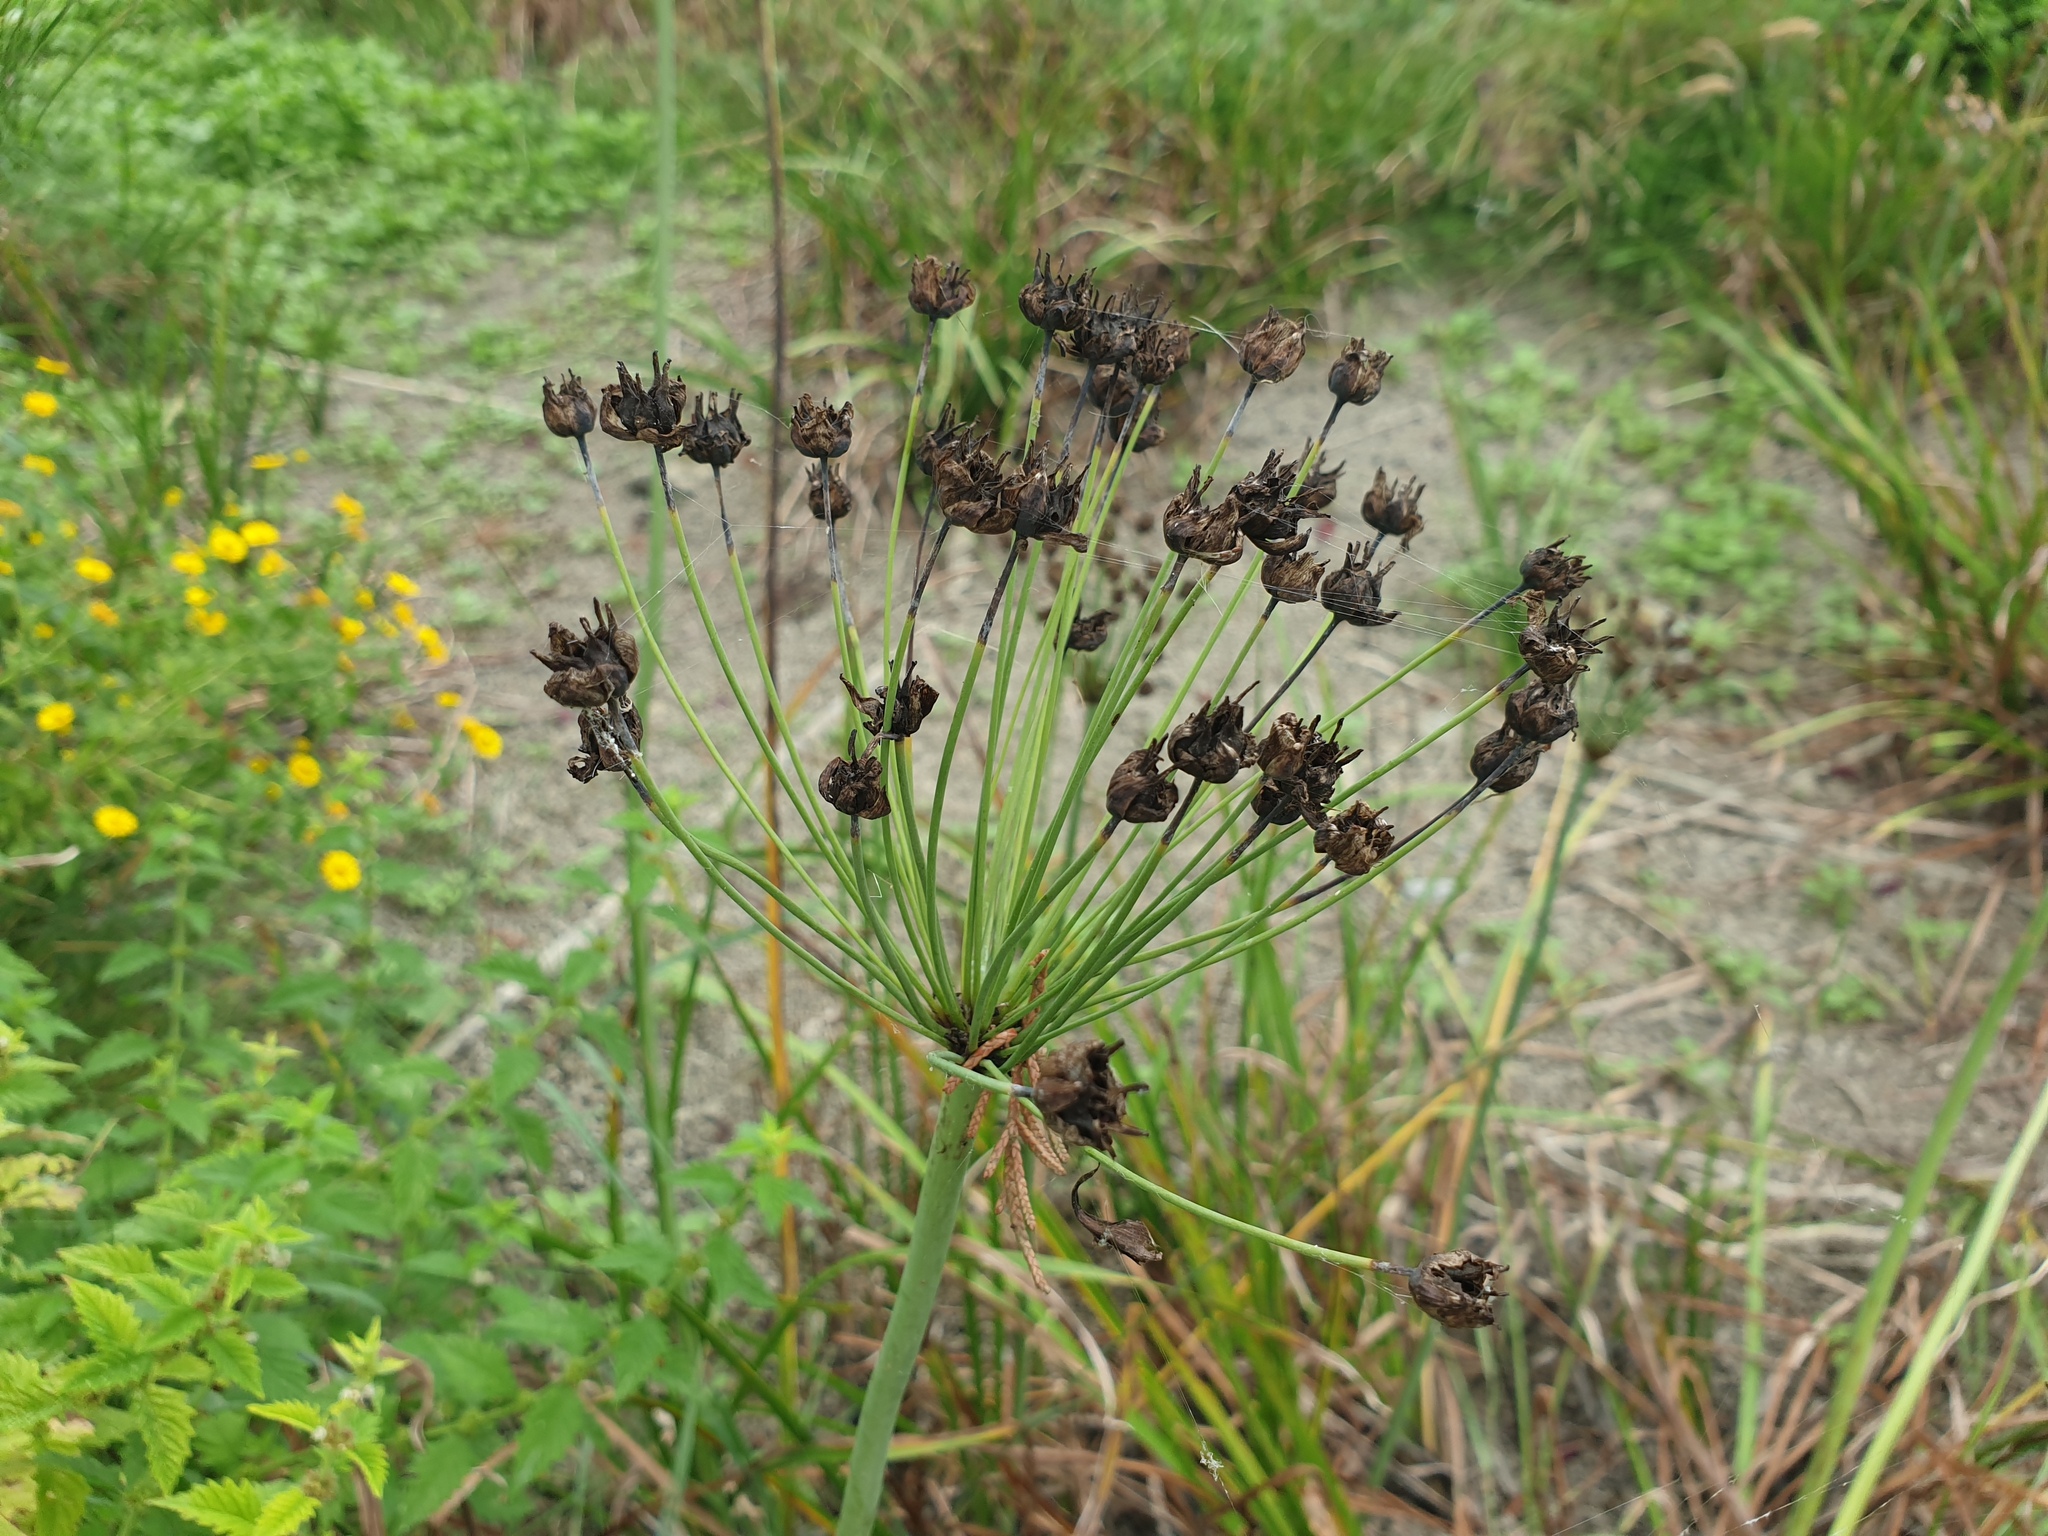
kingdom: Plantae
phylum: Tracheophyta
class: Liliopsida
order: Alismatales
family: Butomaceae
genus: Butomus
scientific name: Butomus umbellatus
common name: Flowering-rush
